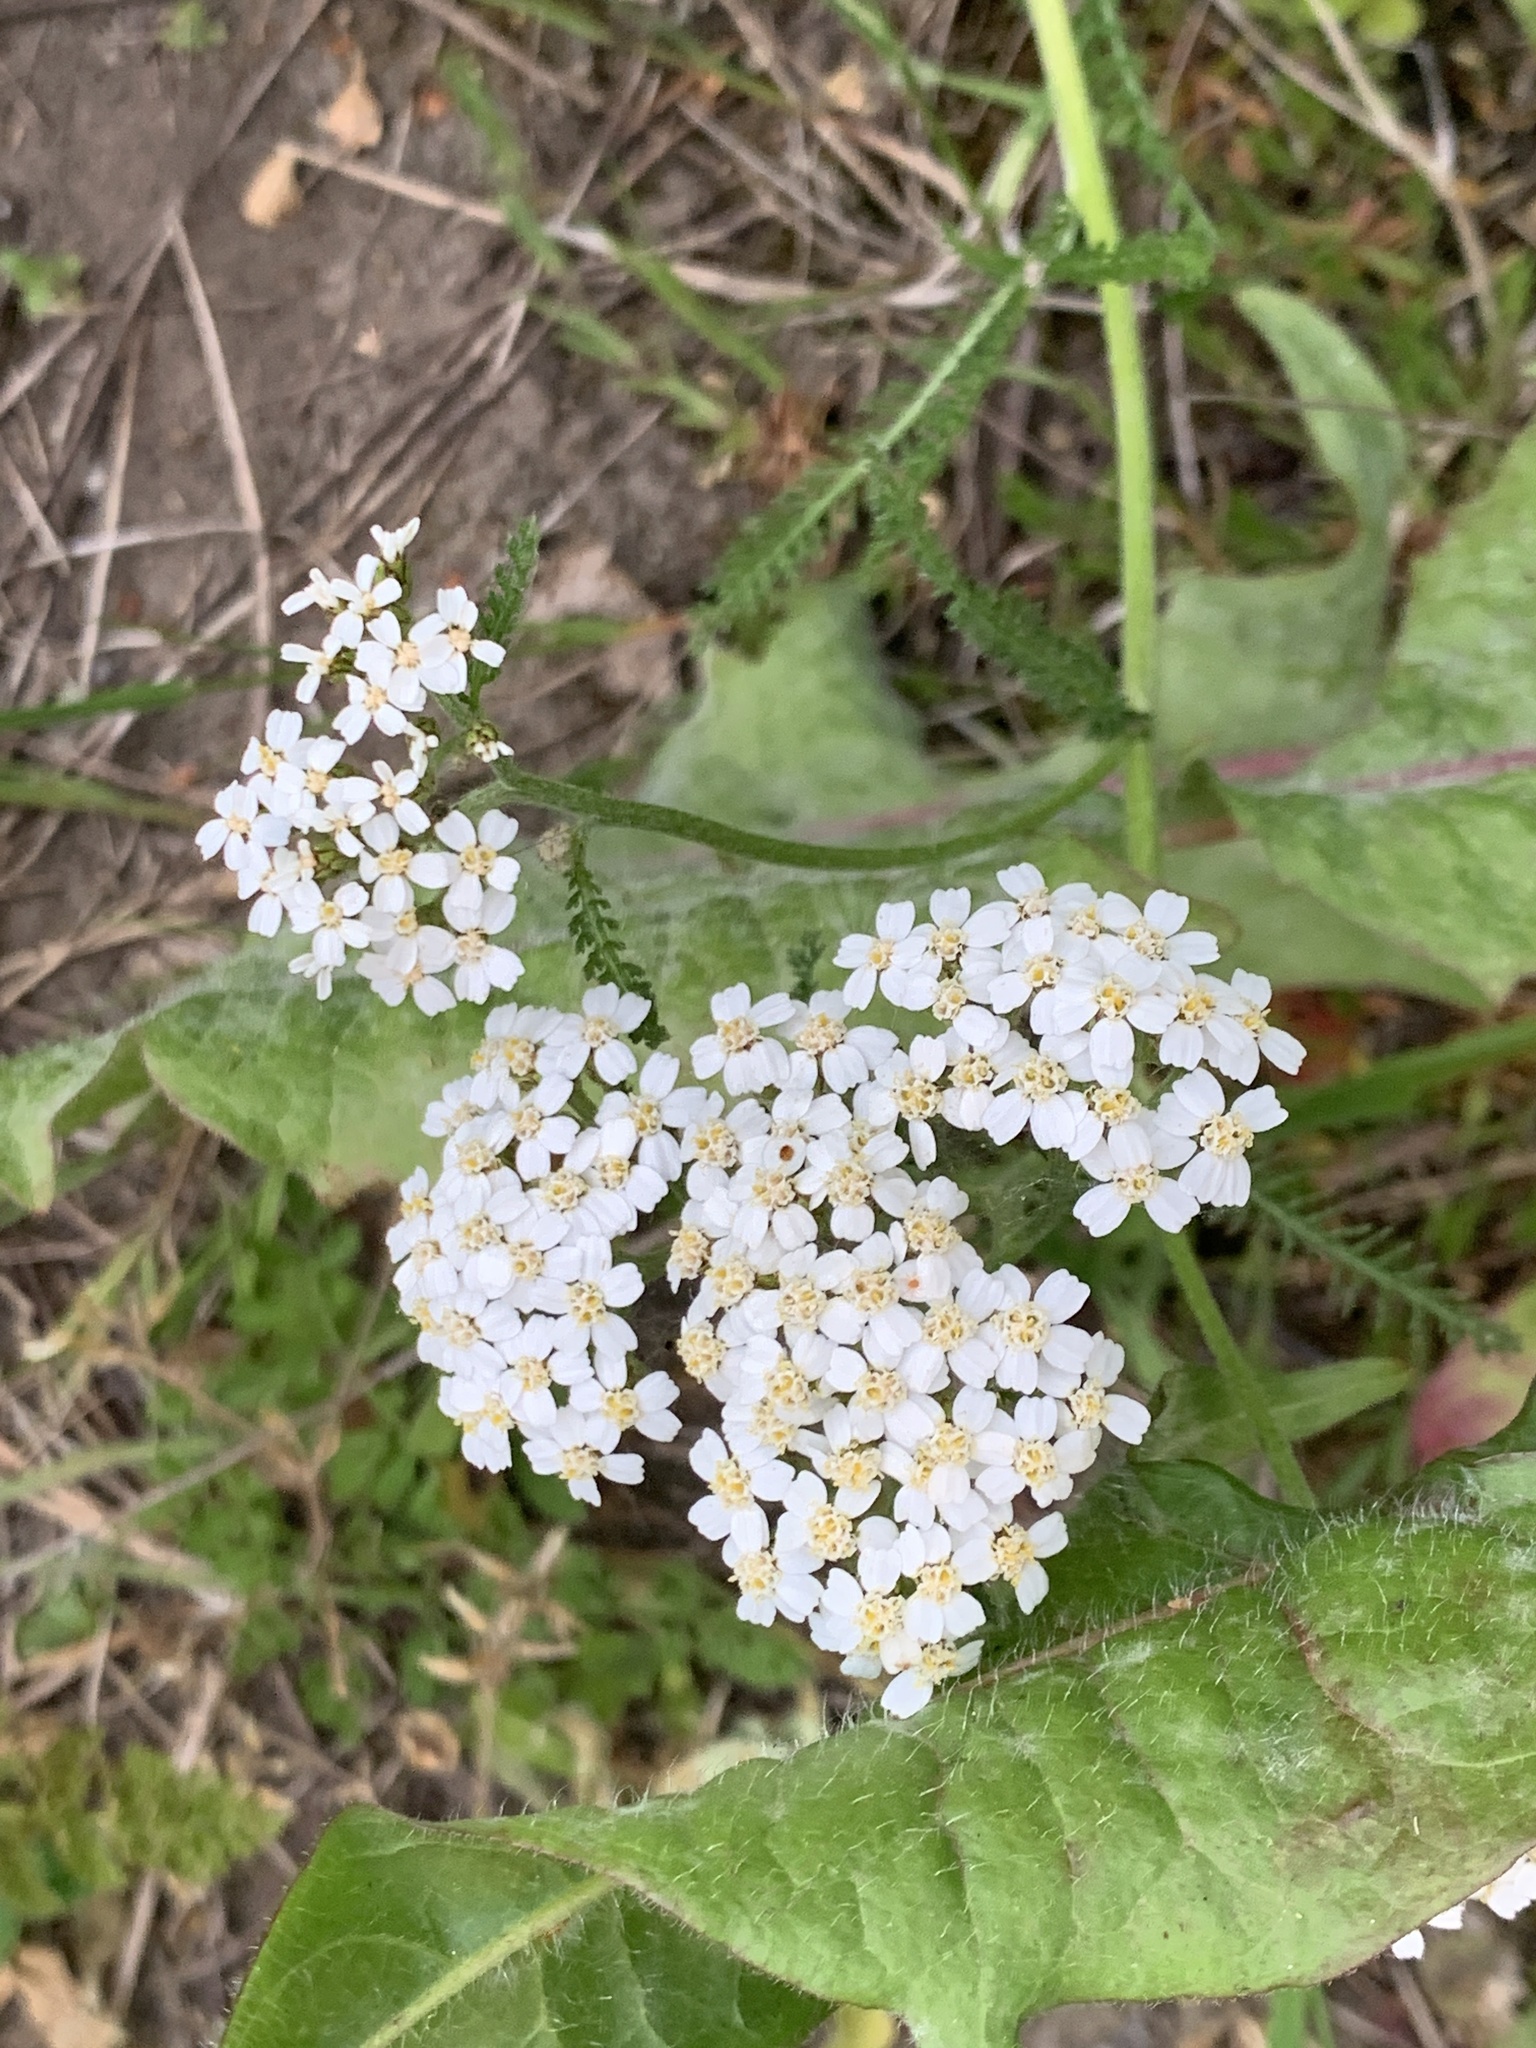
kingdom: Plantae
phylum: Tracheophyta
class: Magnoliopsida
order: Asterales
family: Asteraceae
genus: Achillea
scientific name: Achillea millefolium
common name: Yarrow
